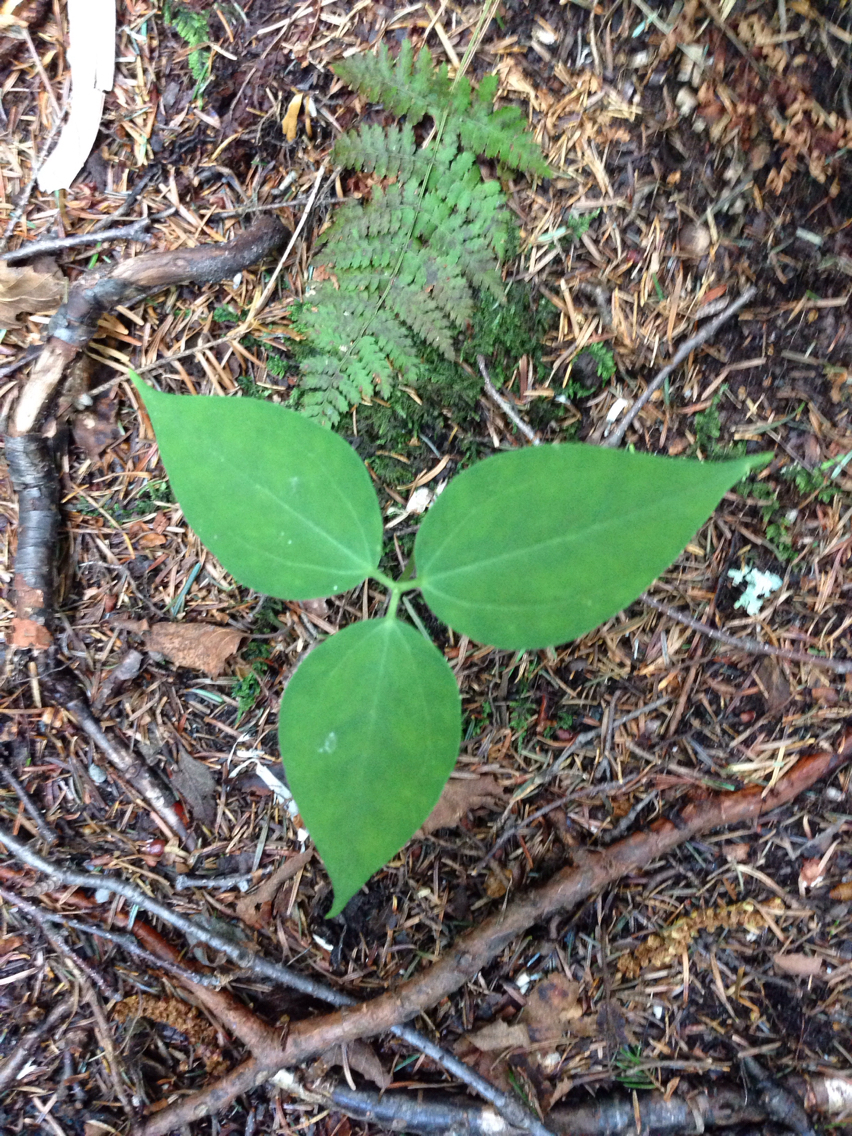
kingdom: Plantae
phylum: Tracheophyta
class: Liliopsida
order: Liliales
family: Melanthiaceae
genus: Trillium
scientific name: Trillium undulatum
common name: Paint trillium
